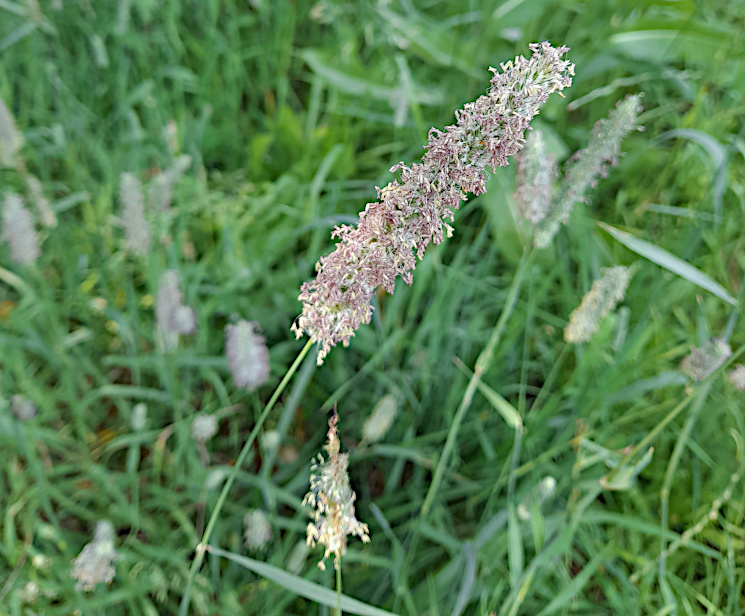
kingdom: Plantae
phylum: Tracheophyta
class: Liliopsida
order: Poales
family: Poaceae
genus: Phleum
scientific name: Phleum pratense
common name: Timothy grass
